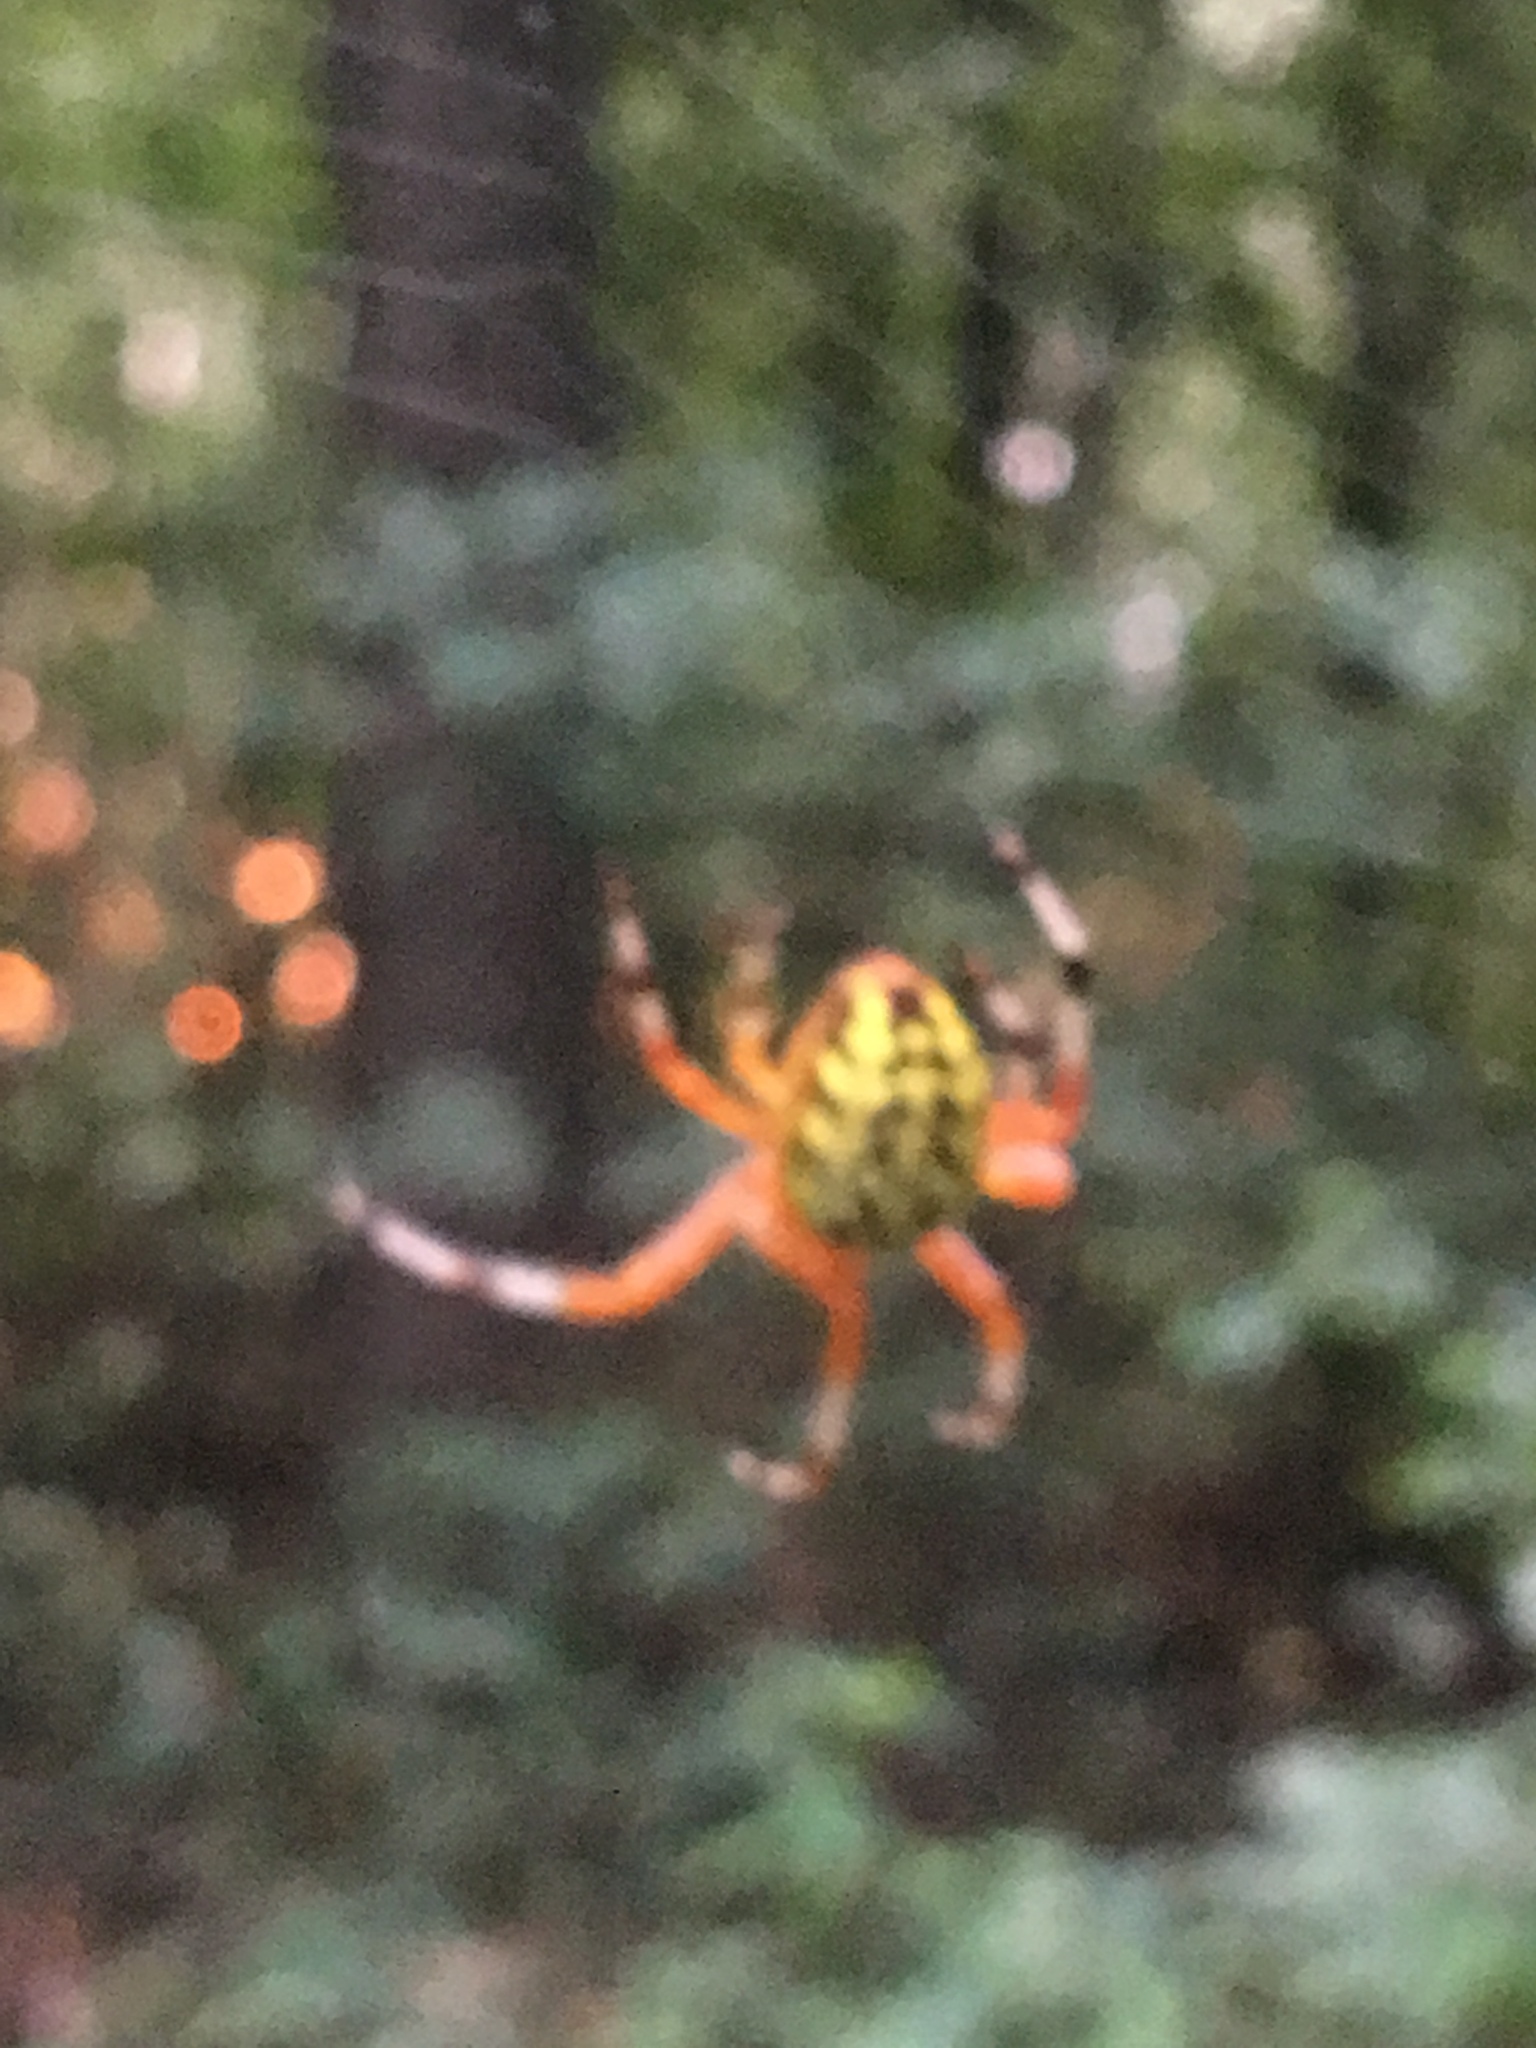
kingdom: Animalia
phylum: Arthropoda
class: Arachnida
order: Araneae
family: Araneidae
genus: Araneus
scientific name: Araneus marmoreus
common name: Marbled orbweaver
